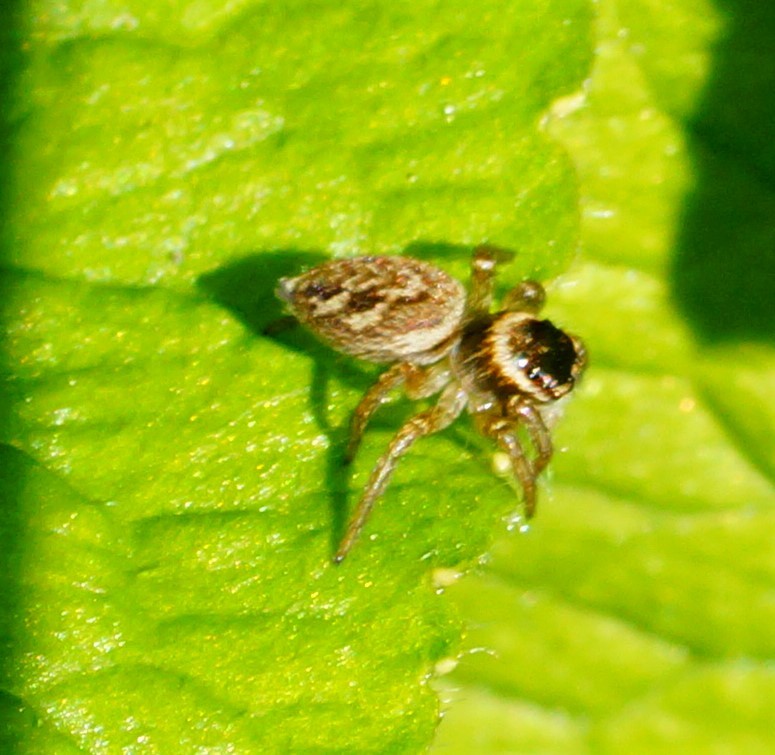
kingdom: Animalia
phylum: Arthropoda
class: Arachnida
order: Araneae
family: Salticidae
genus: Maratus
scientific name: Maratus griseus
